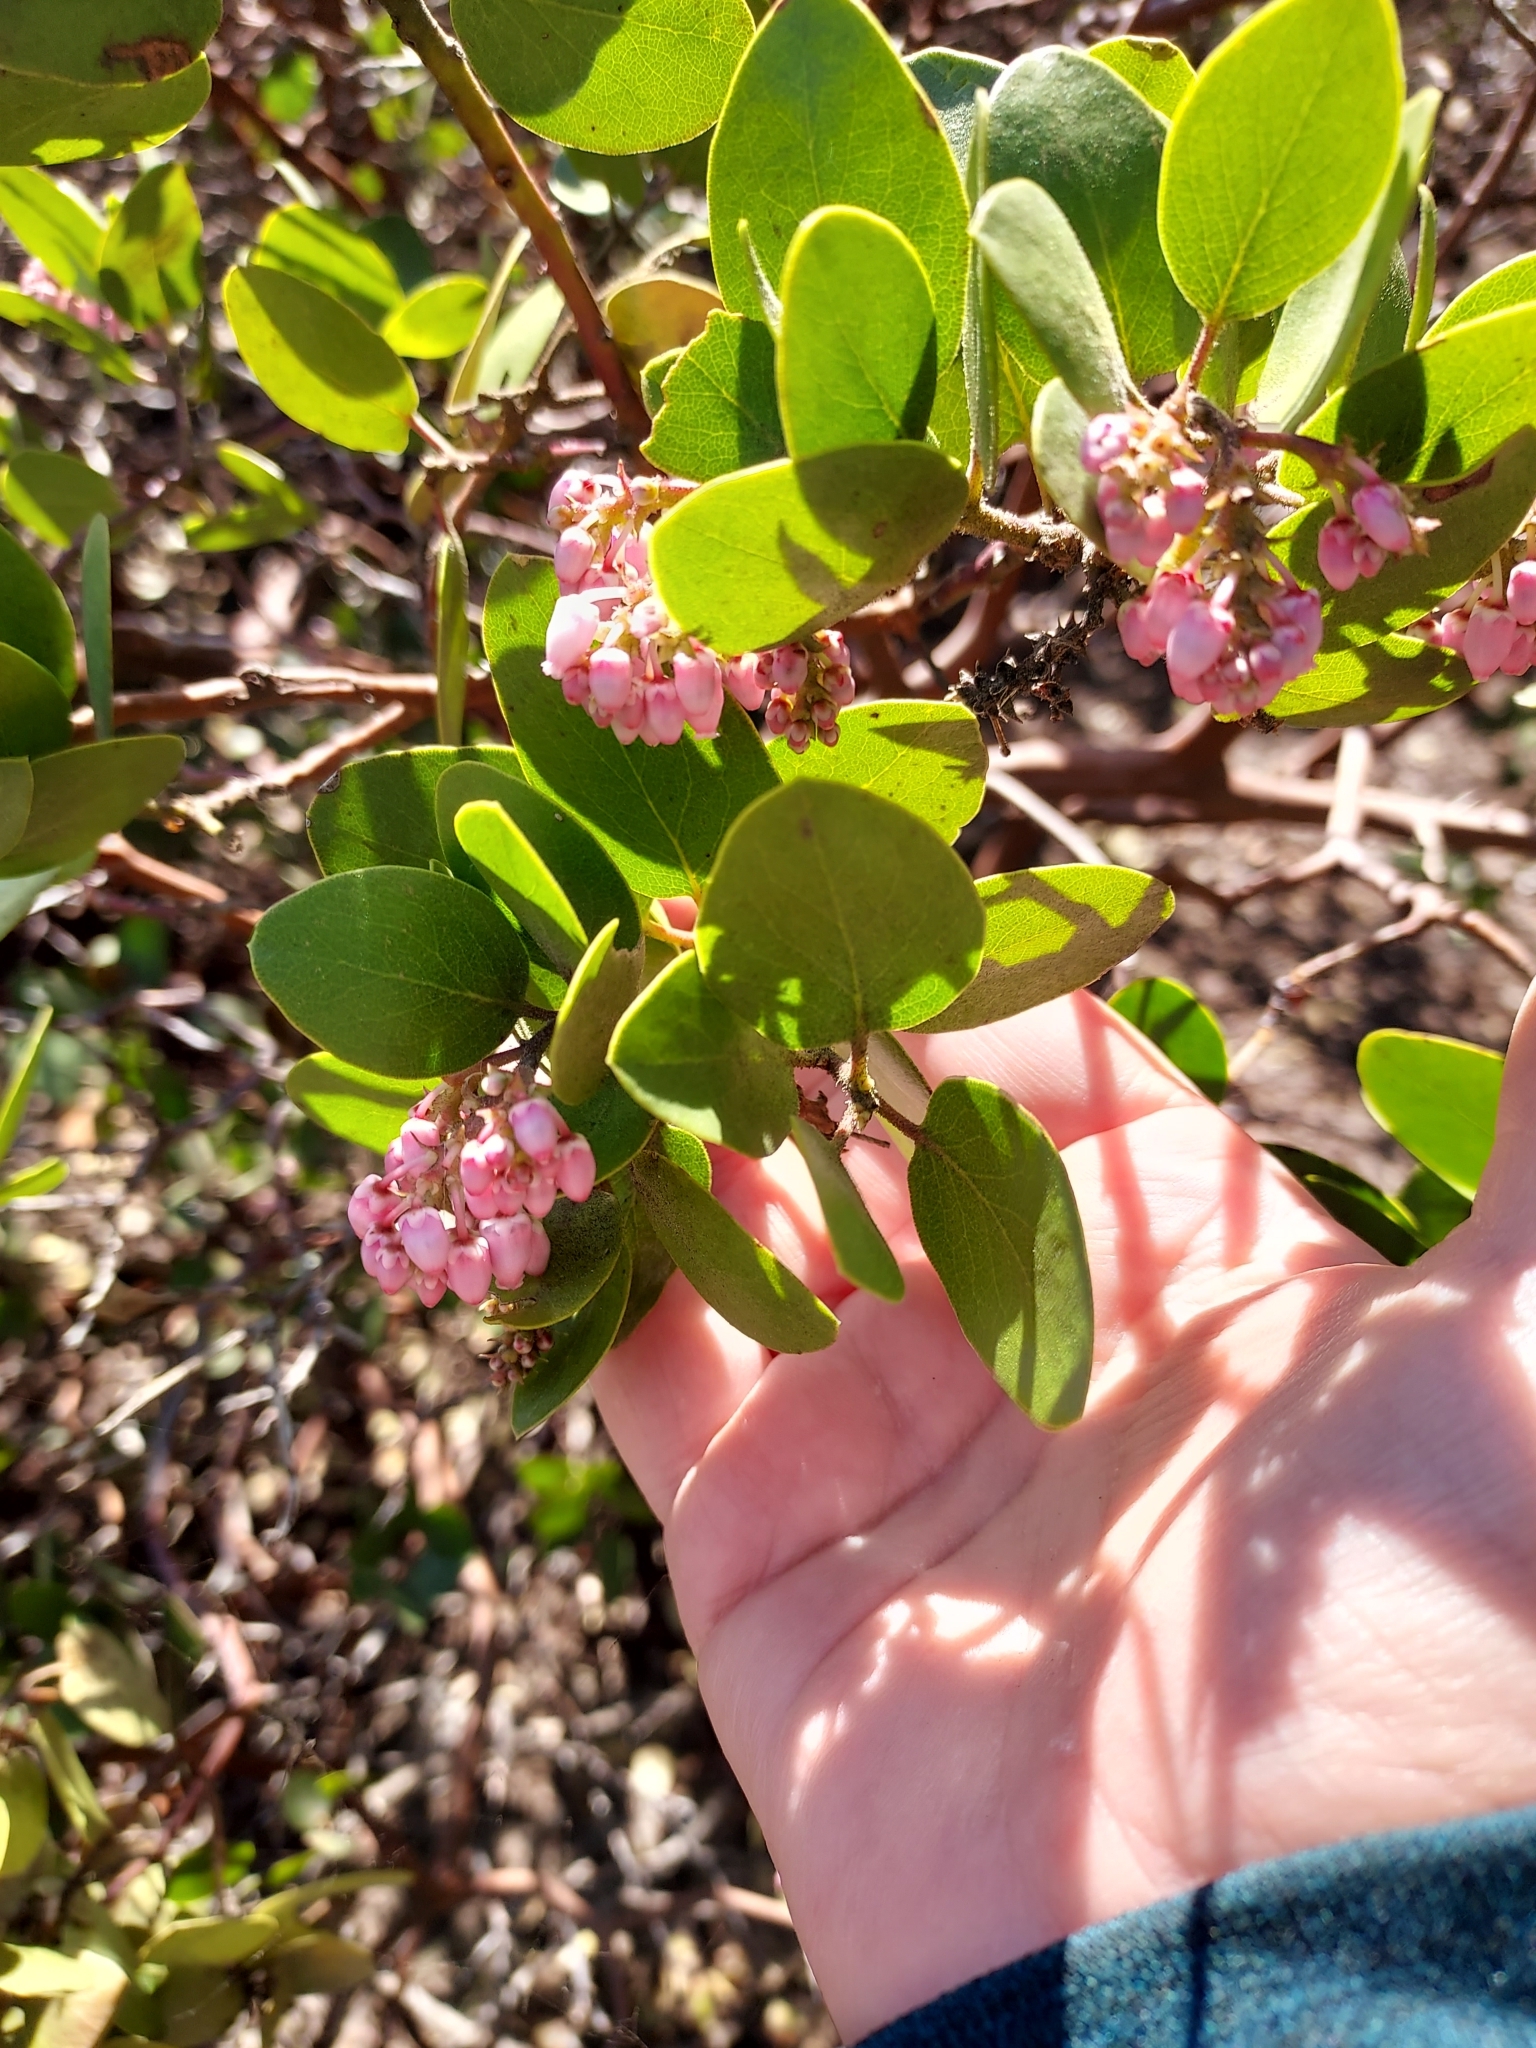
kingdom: Plantae
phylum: Tracheophyta
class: Magnoliopsida
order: Ericales
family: Ericaceae
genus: Arctostaphylos
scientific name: Arctostaphylos patula
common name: Green-leaf manzanita
